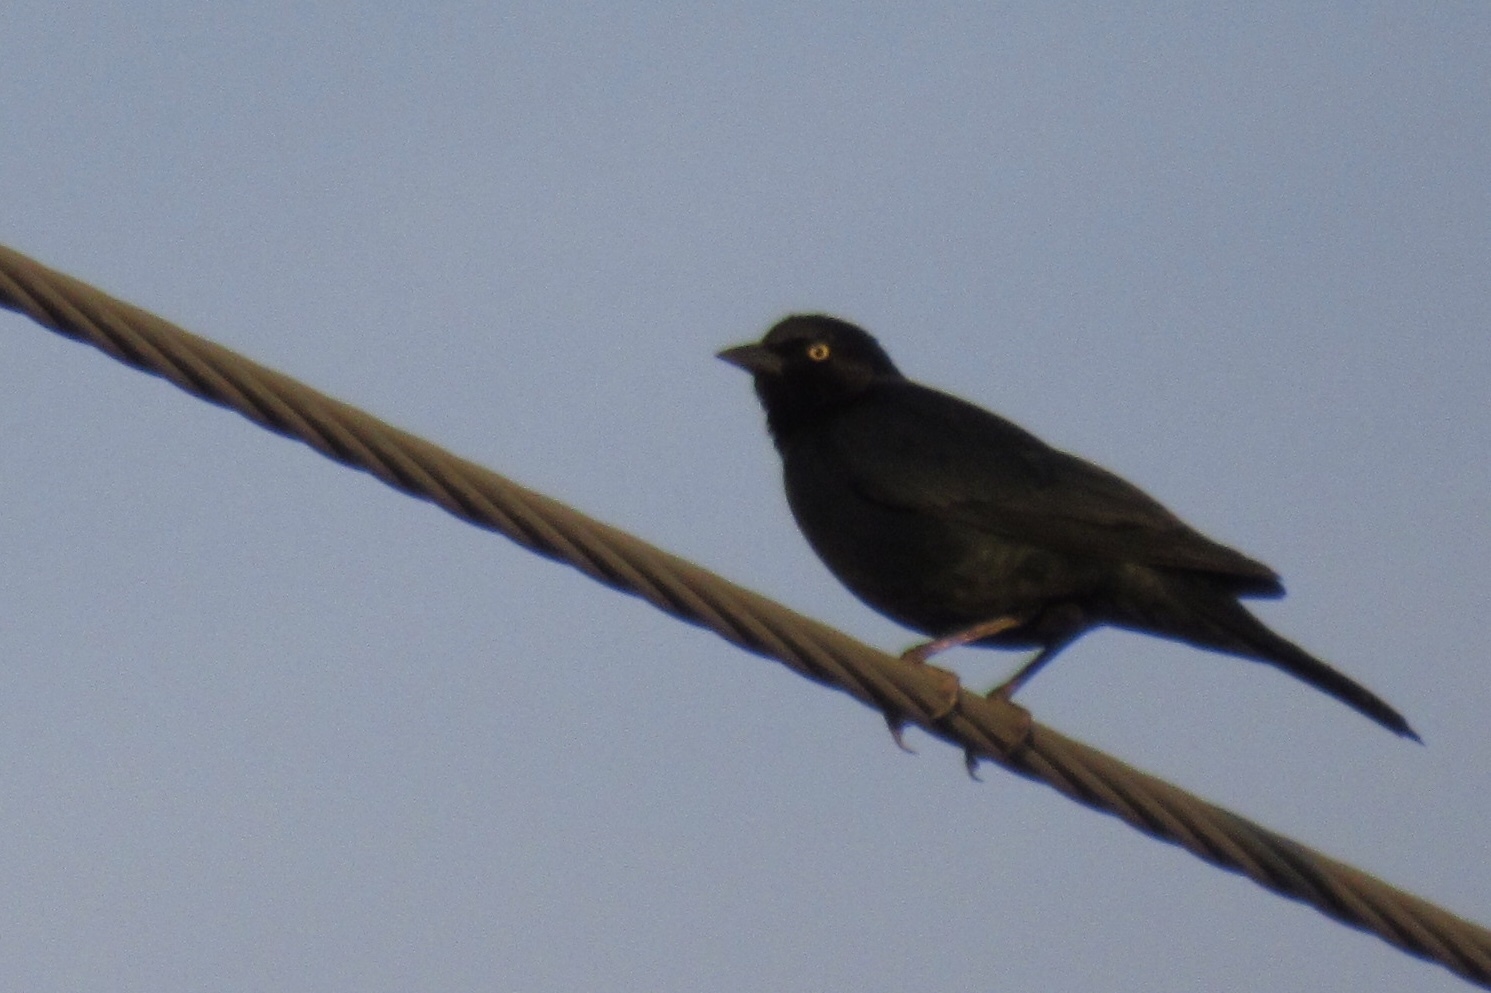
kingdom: Animalia
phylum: Chordata
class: Aves
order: Passeriformes
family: Icteridae
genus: Euphagus
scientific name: Euphagus cyanocephalus
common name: Brewer's blackbird
